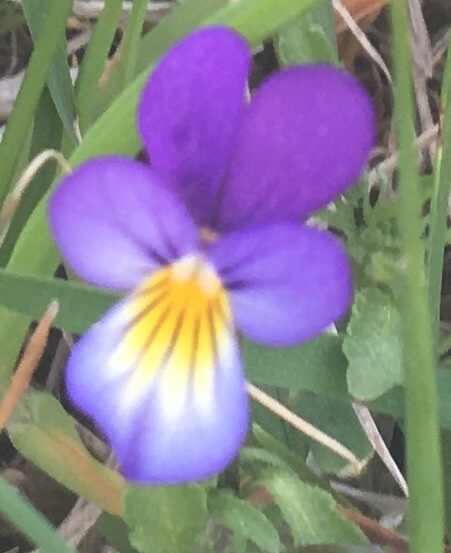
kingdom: Plantae
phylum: Tracheophyta
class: Magnoliopsida
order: Malpighiales
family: Violaceae
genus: Viola
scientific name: Viola tricolor
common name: Pansy
